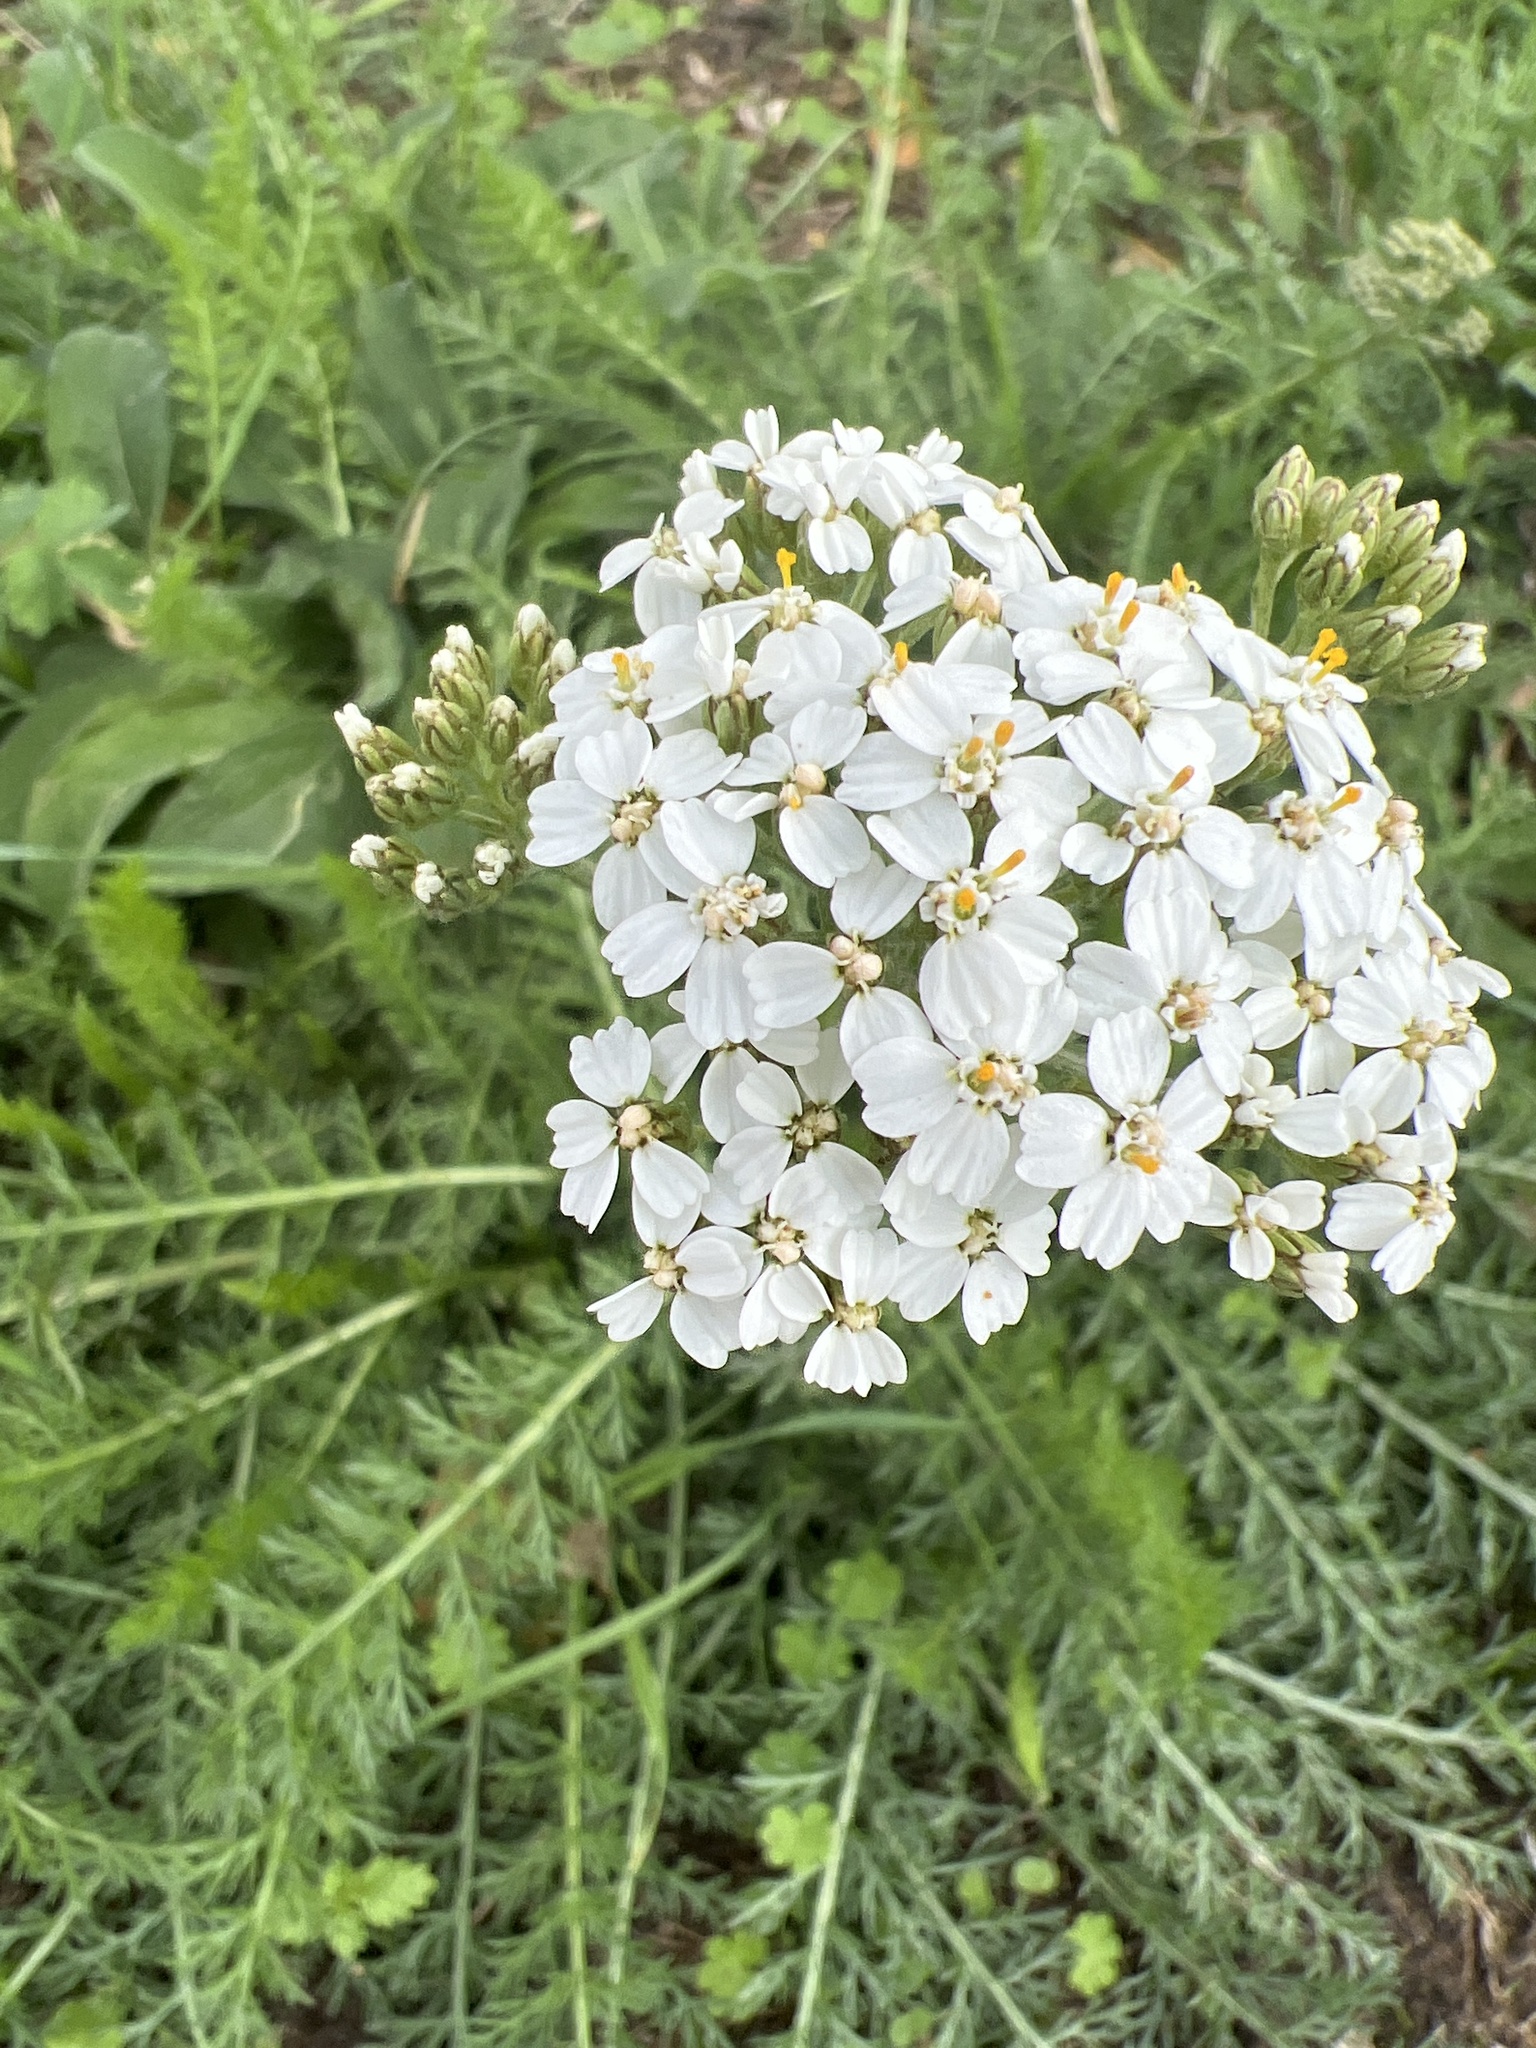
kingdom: Plantae
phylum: Tracheophyta
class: Magnoliopsida
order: Asterales
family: Asteraceae
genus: Achillea
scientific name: Achillea millefolium
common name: Yarrow
